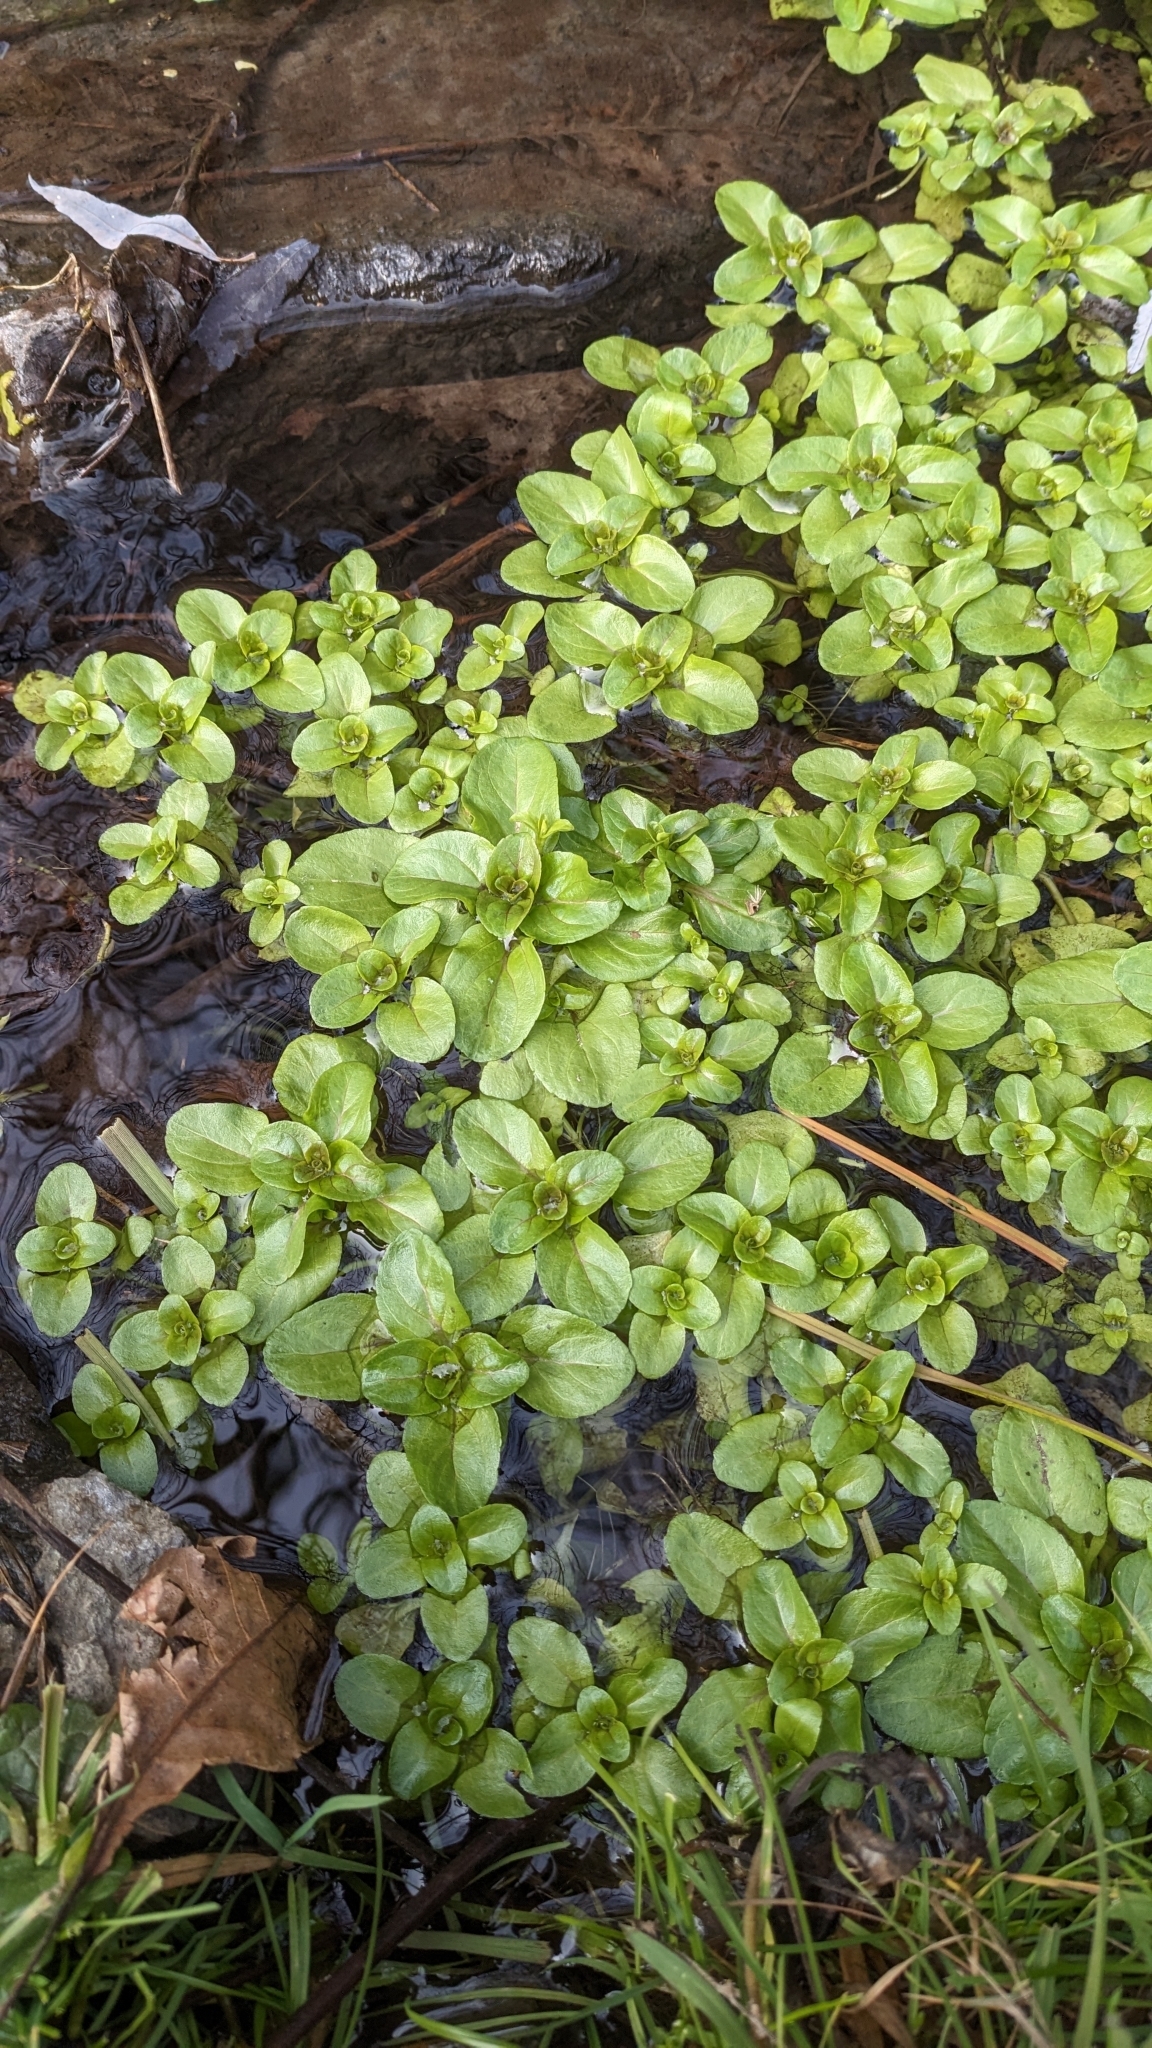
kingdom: Plantae
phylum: Tracheophyta
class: Magnoliopsida
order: Lamiales
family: Plantaginaceae
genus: Veronica
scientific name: Veronica beccabunga
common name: Brooklime
